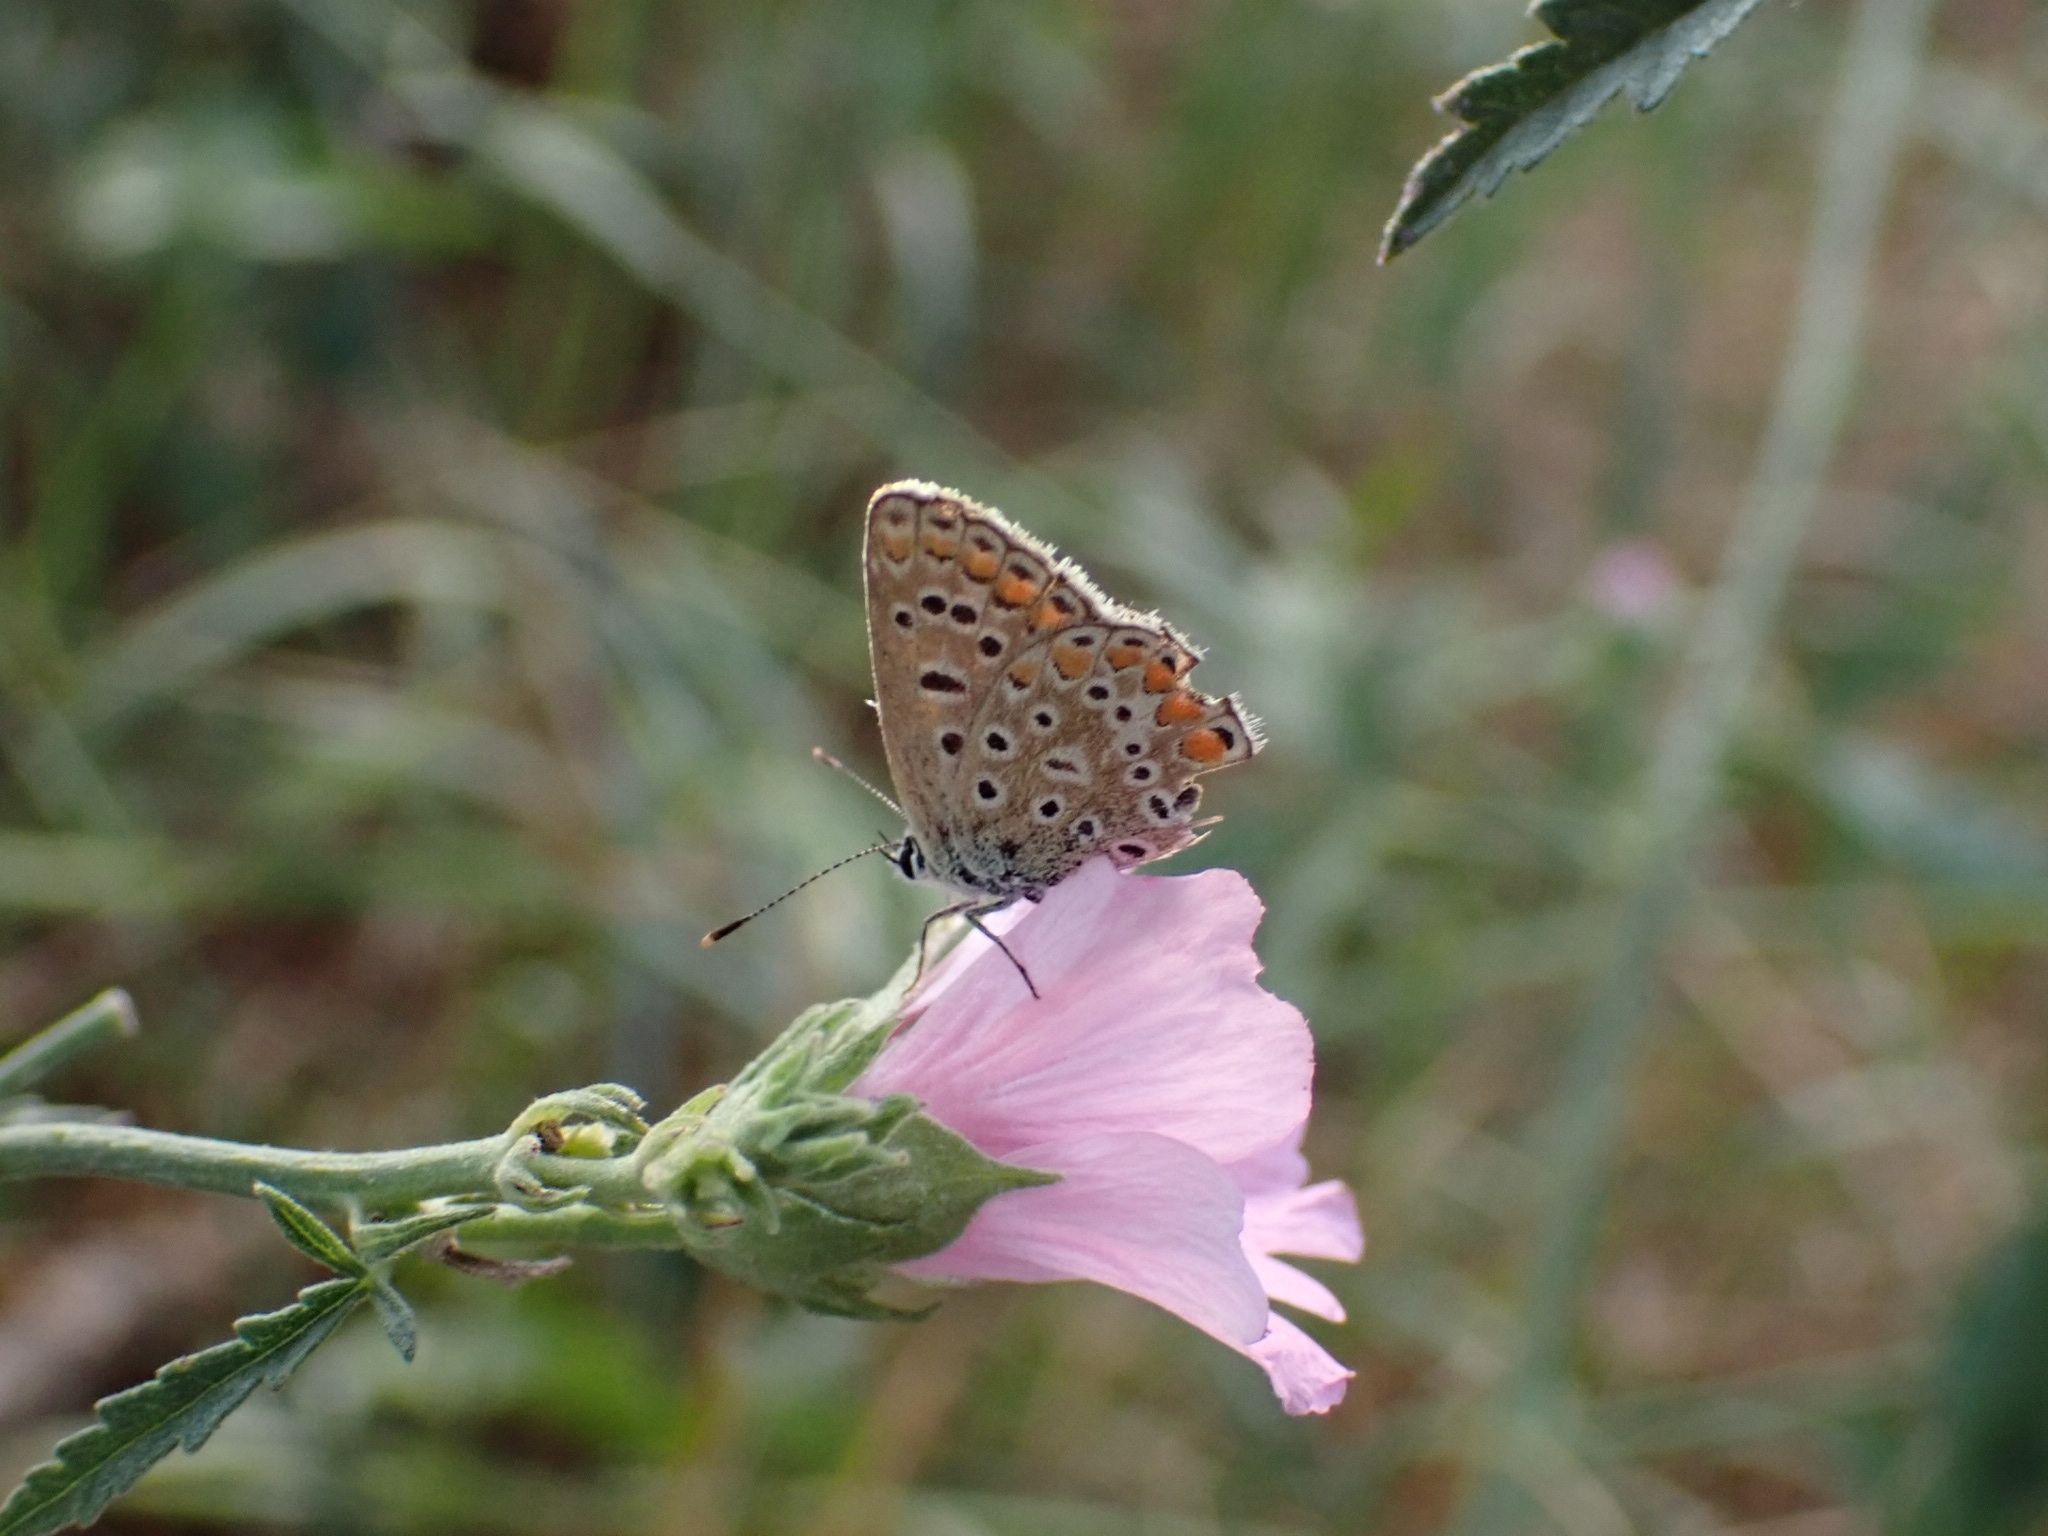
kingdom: Animalia
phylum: Arthropoda
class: Insecta
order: Lepidoptera
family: Lycaenidae
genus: Polyommatus
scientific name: Polyommatus icarus
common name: Common blue
